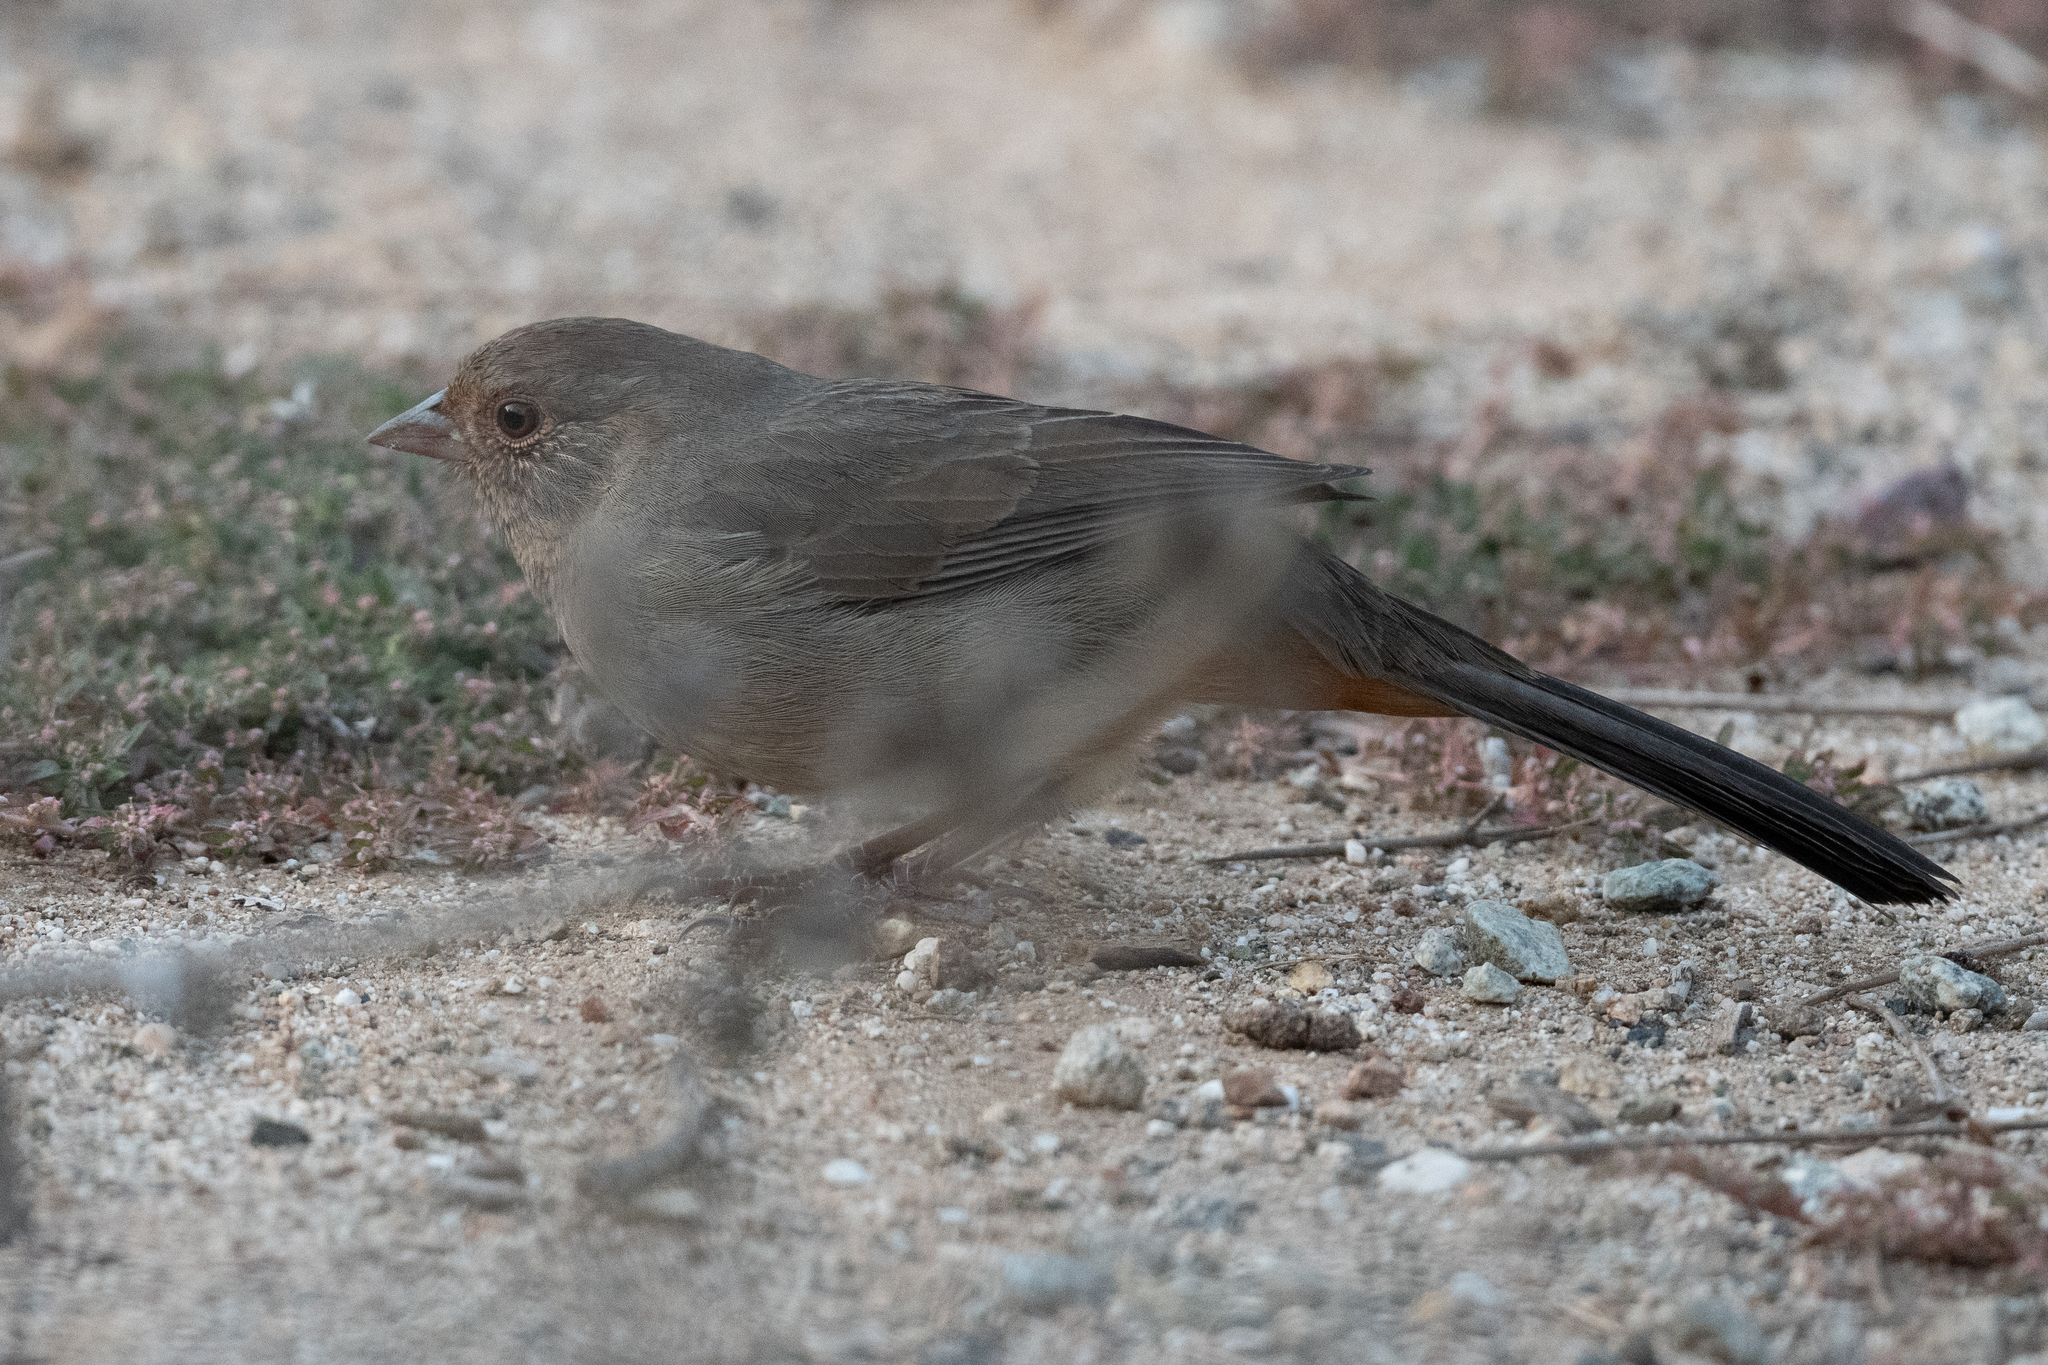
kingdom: Animalia
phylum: Chordata
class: Aves
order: Passeriformes
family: Passerellidae
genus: Melozone
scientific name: Melozone crissalis
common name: California towhee
